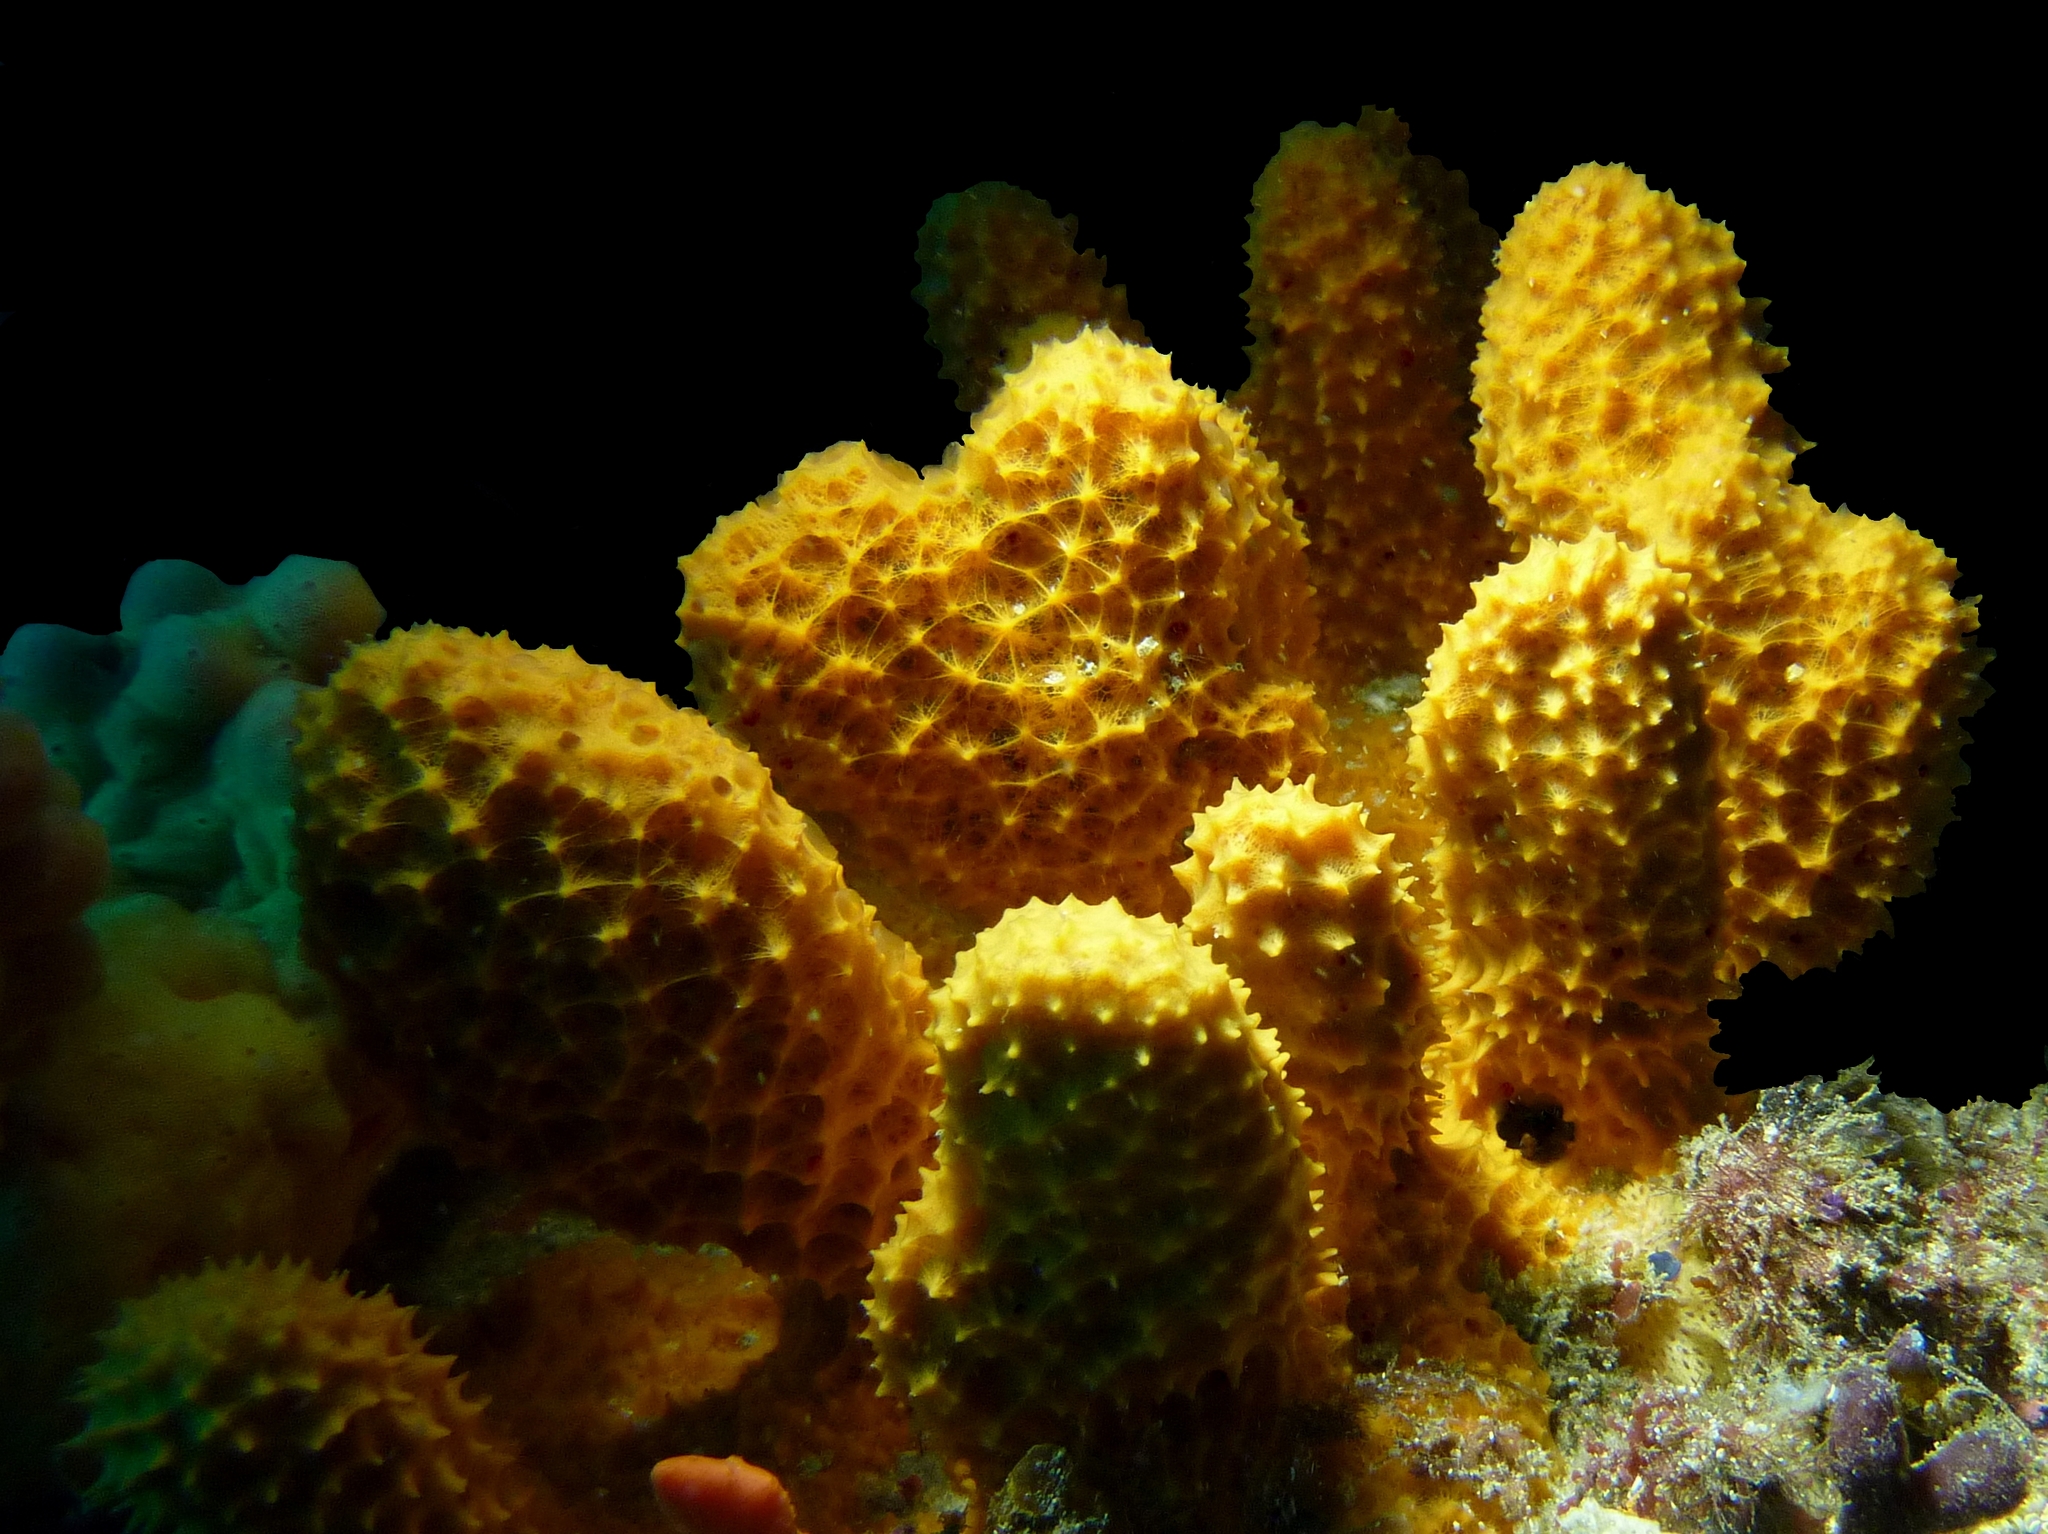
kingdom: Animalia
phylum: Porifera
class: Demospongiae
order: Scopalinida
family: Scopalinidae
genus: Scopalina
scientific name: Scopalina australiensis
